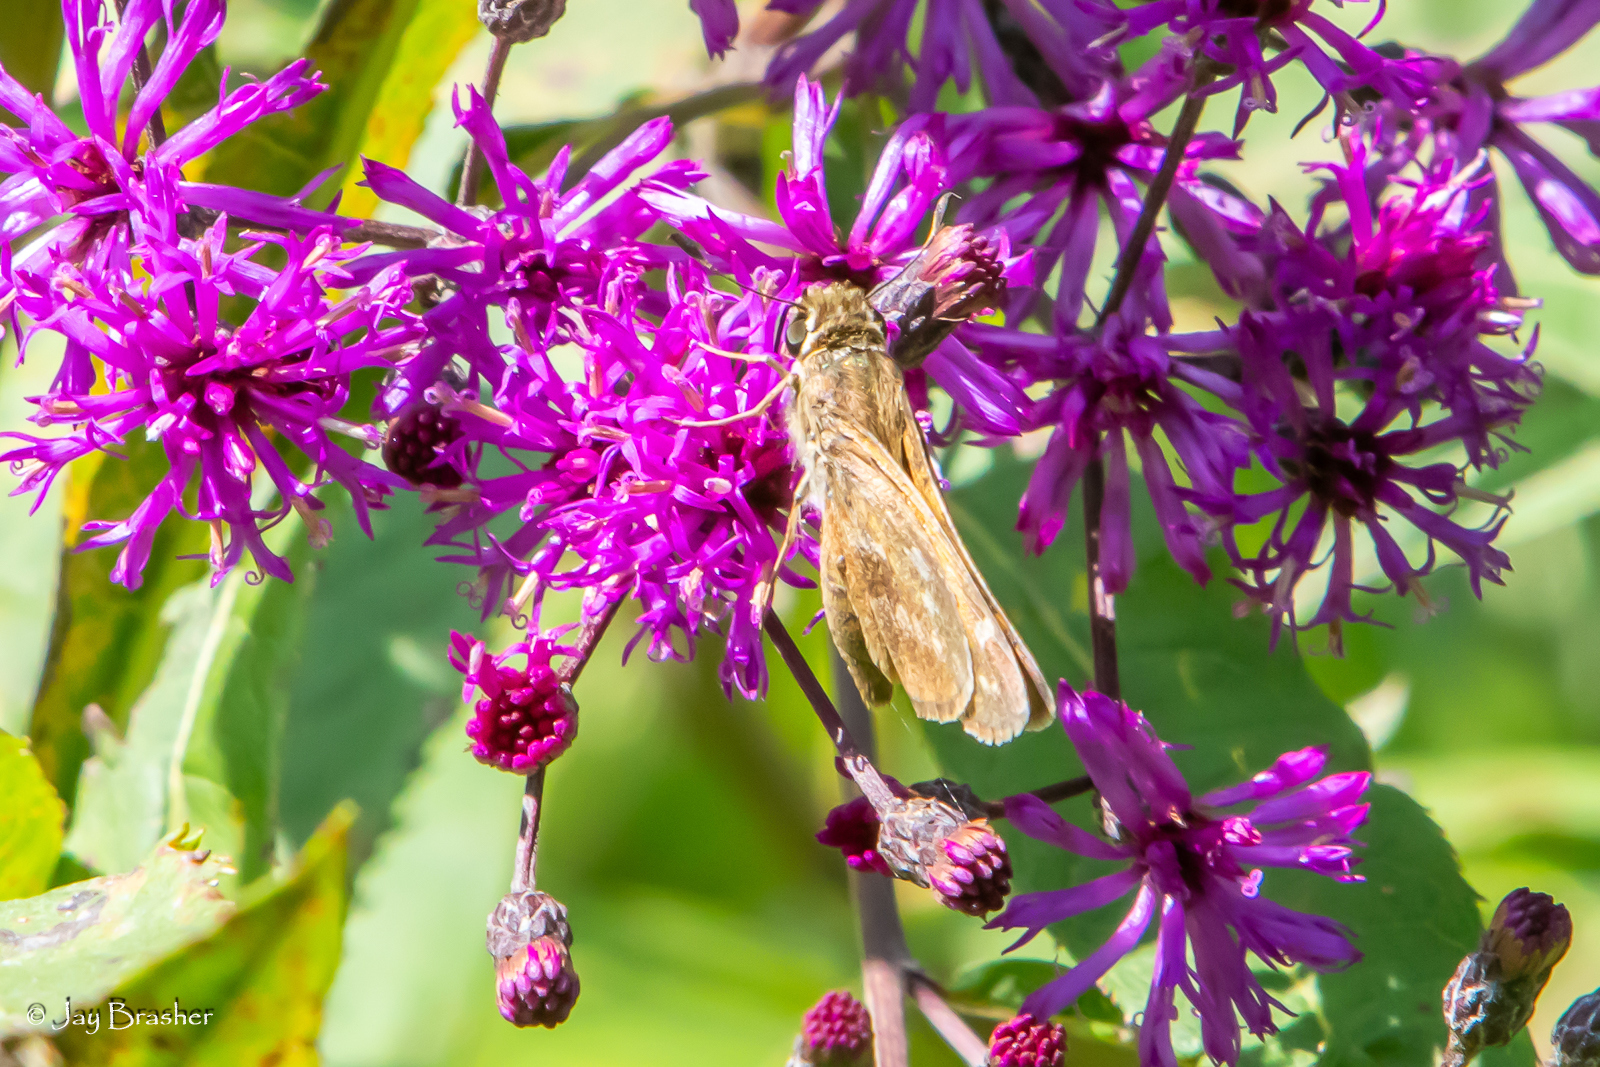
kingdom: Animalia
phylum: Arthropoda
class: Insecta
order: Lepidoptera
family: Hesperiidae
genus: Atalopedes
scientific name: Atalopedes
